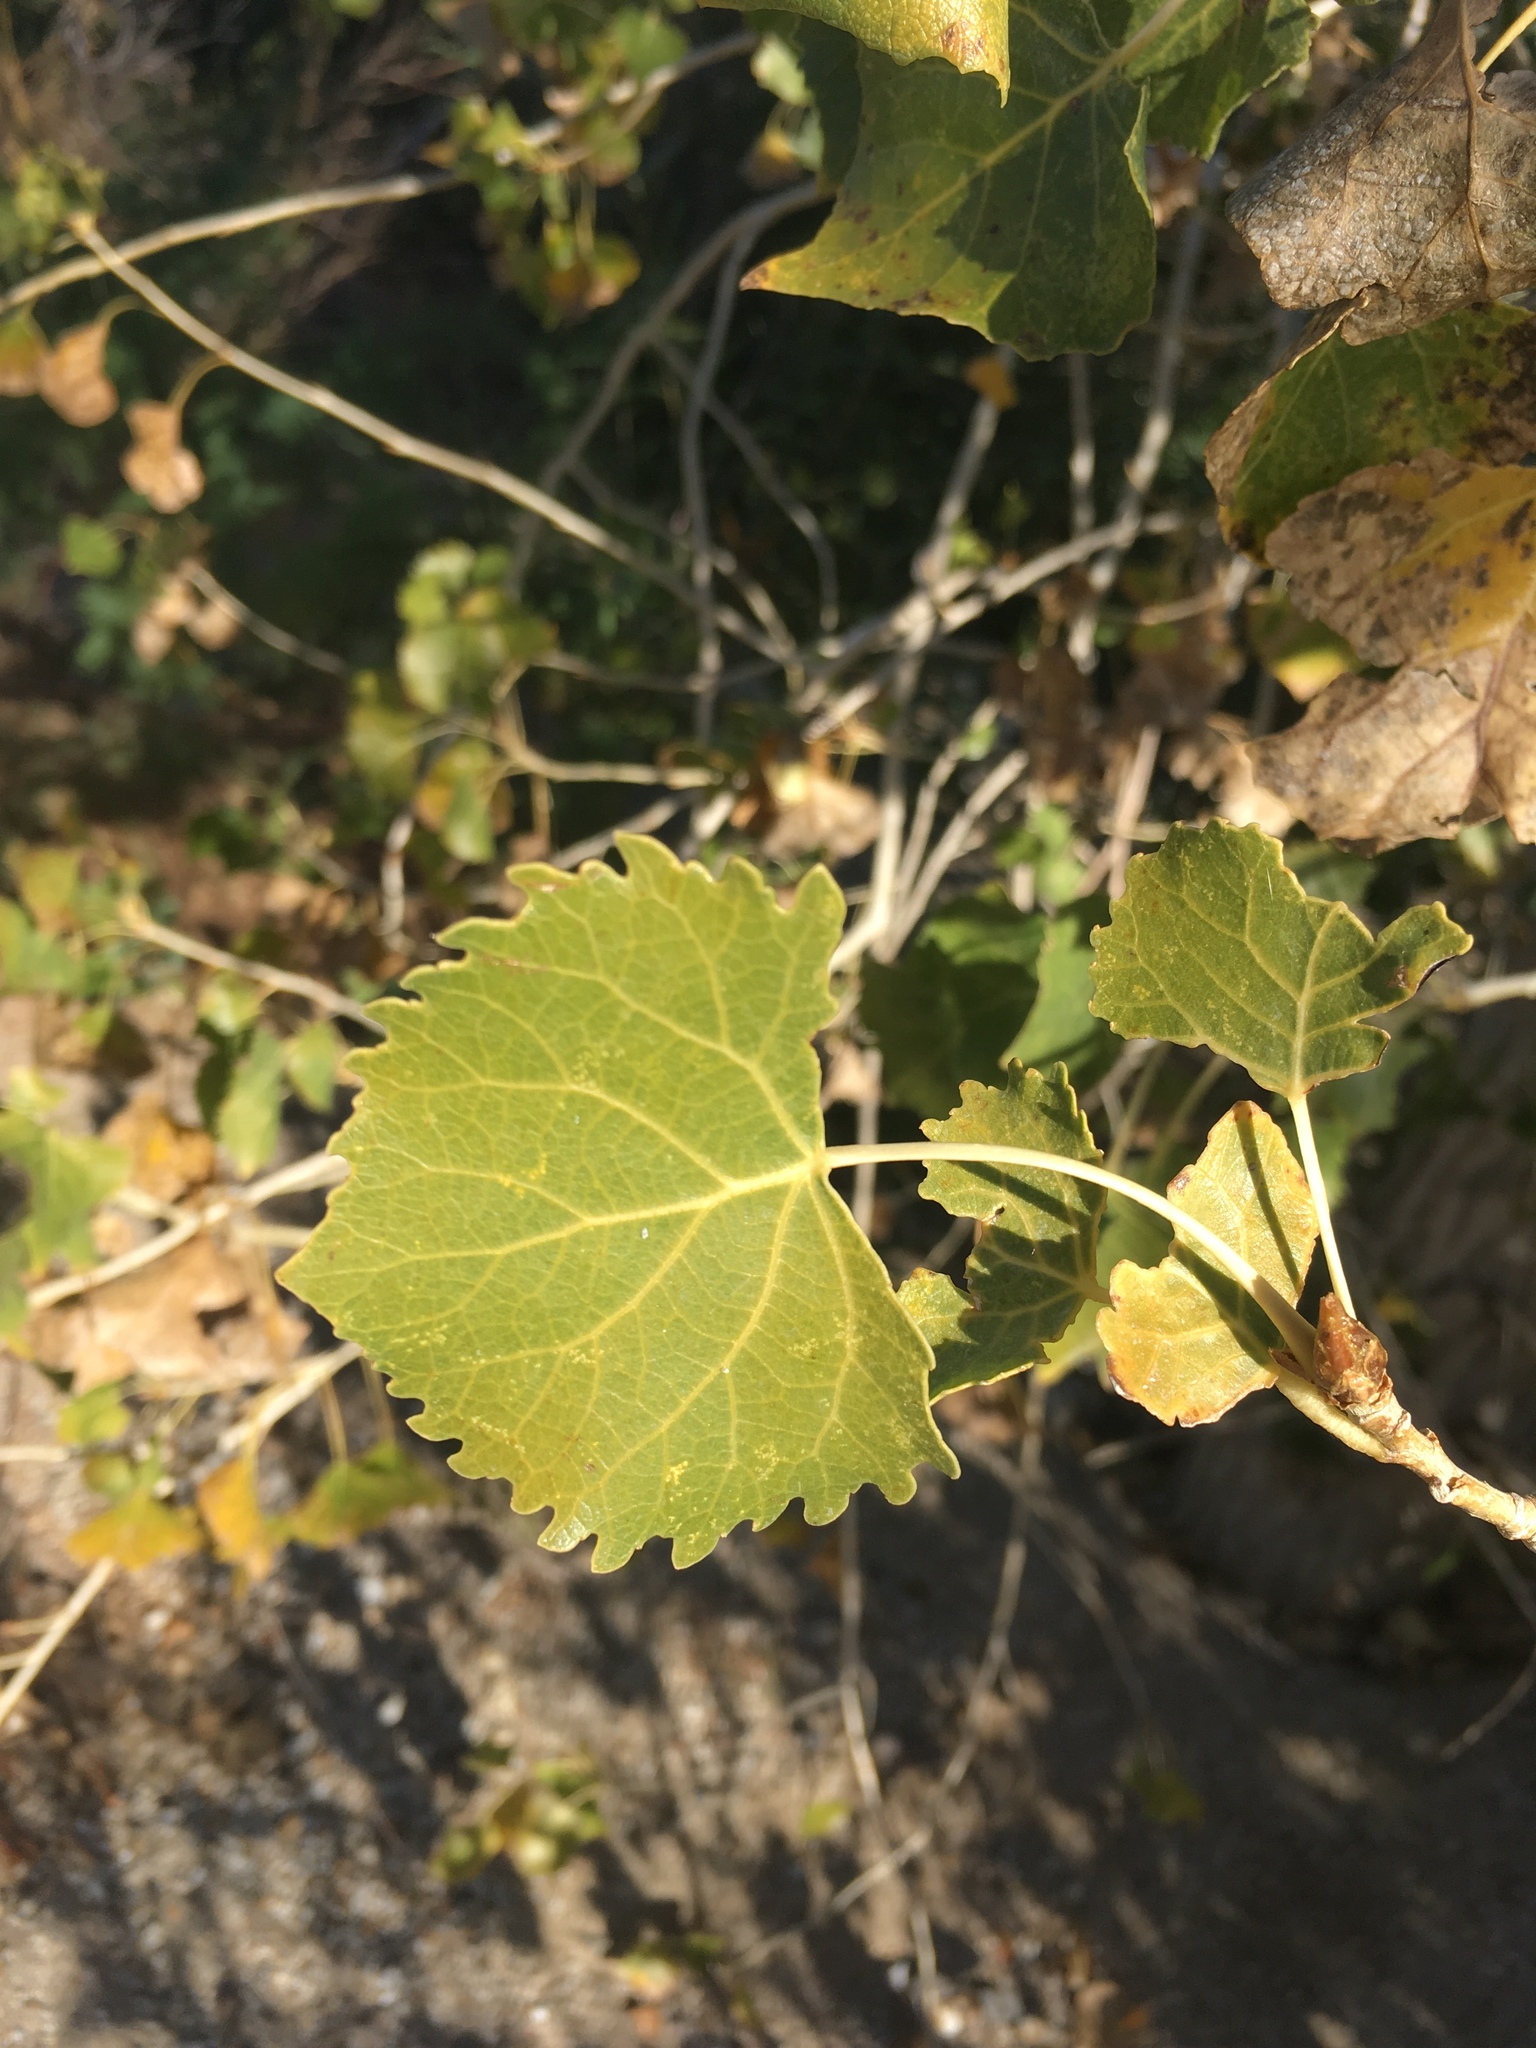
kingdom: Plantae
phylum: Tracheophyta
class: Magnoliopsida
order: Malpighiales
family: Salicaceae
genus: Populus
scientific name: Populus fremontii
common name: Fremont's cottonwood
